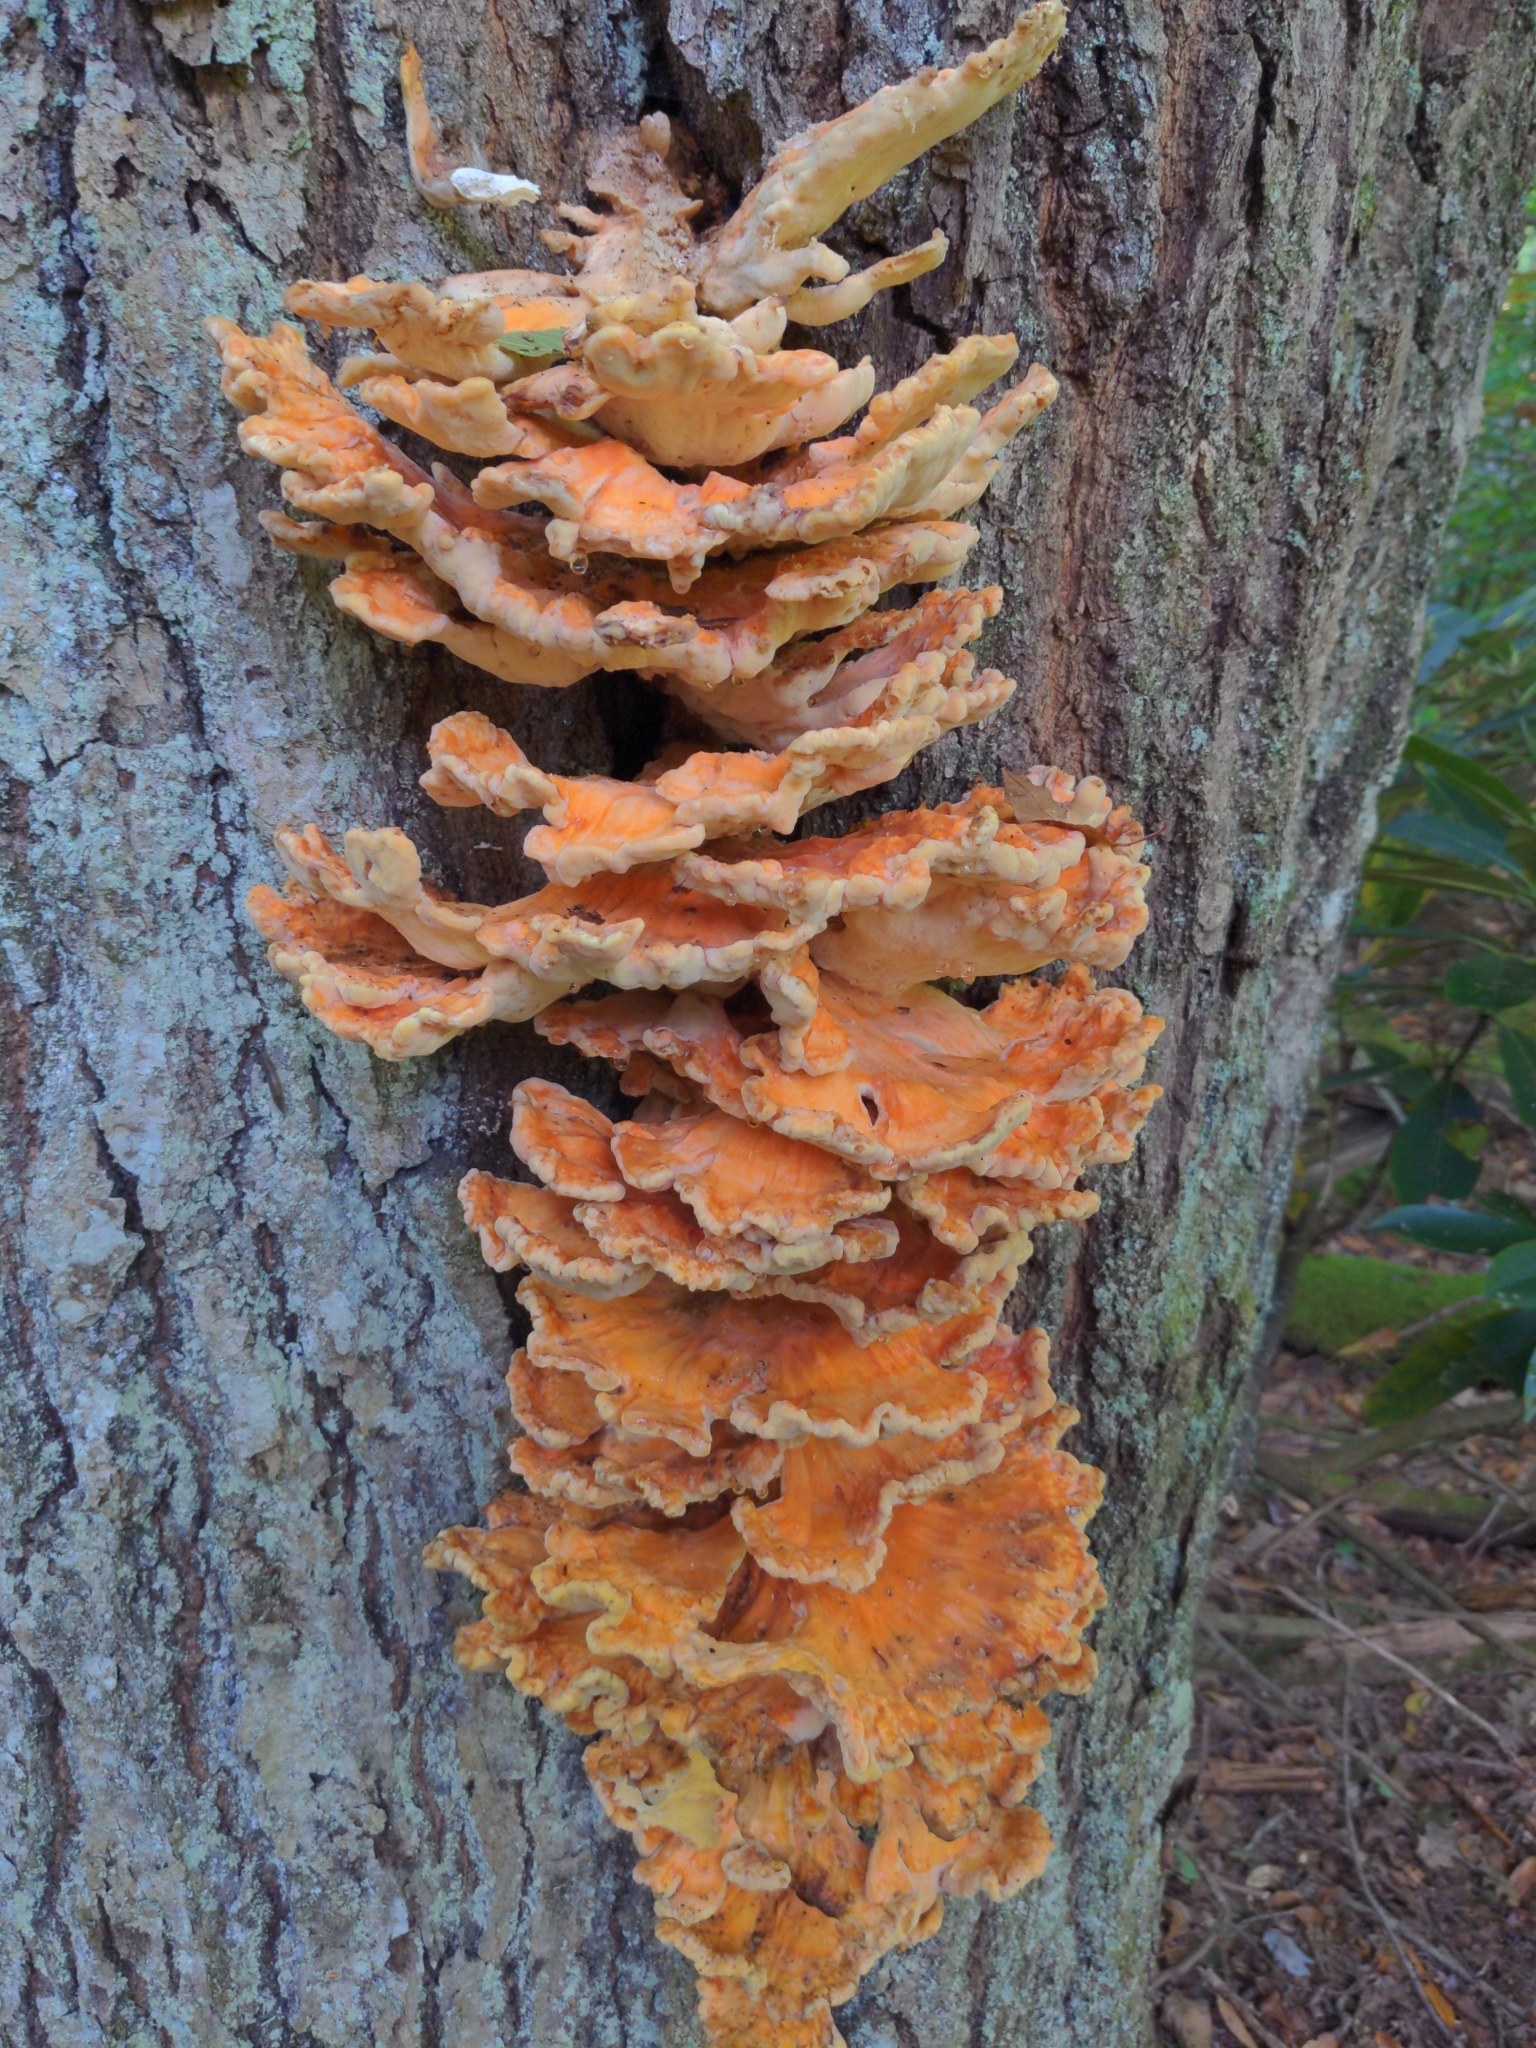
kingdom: Fungi
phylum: Basidiomycota
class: Agaricomycetes
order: Polyporales
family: Laetiporaceae
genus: Laetiporus
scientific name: Laetiporus sulphureus
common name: Chicken of the woods
